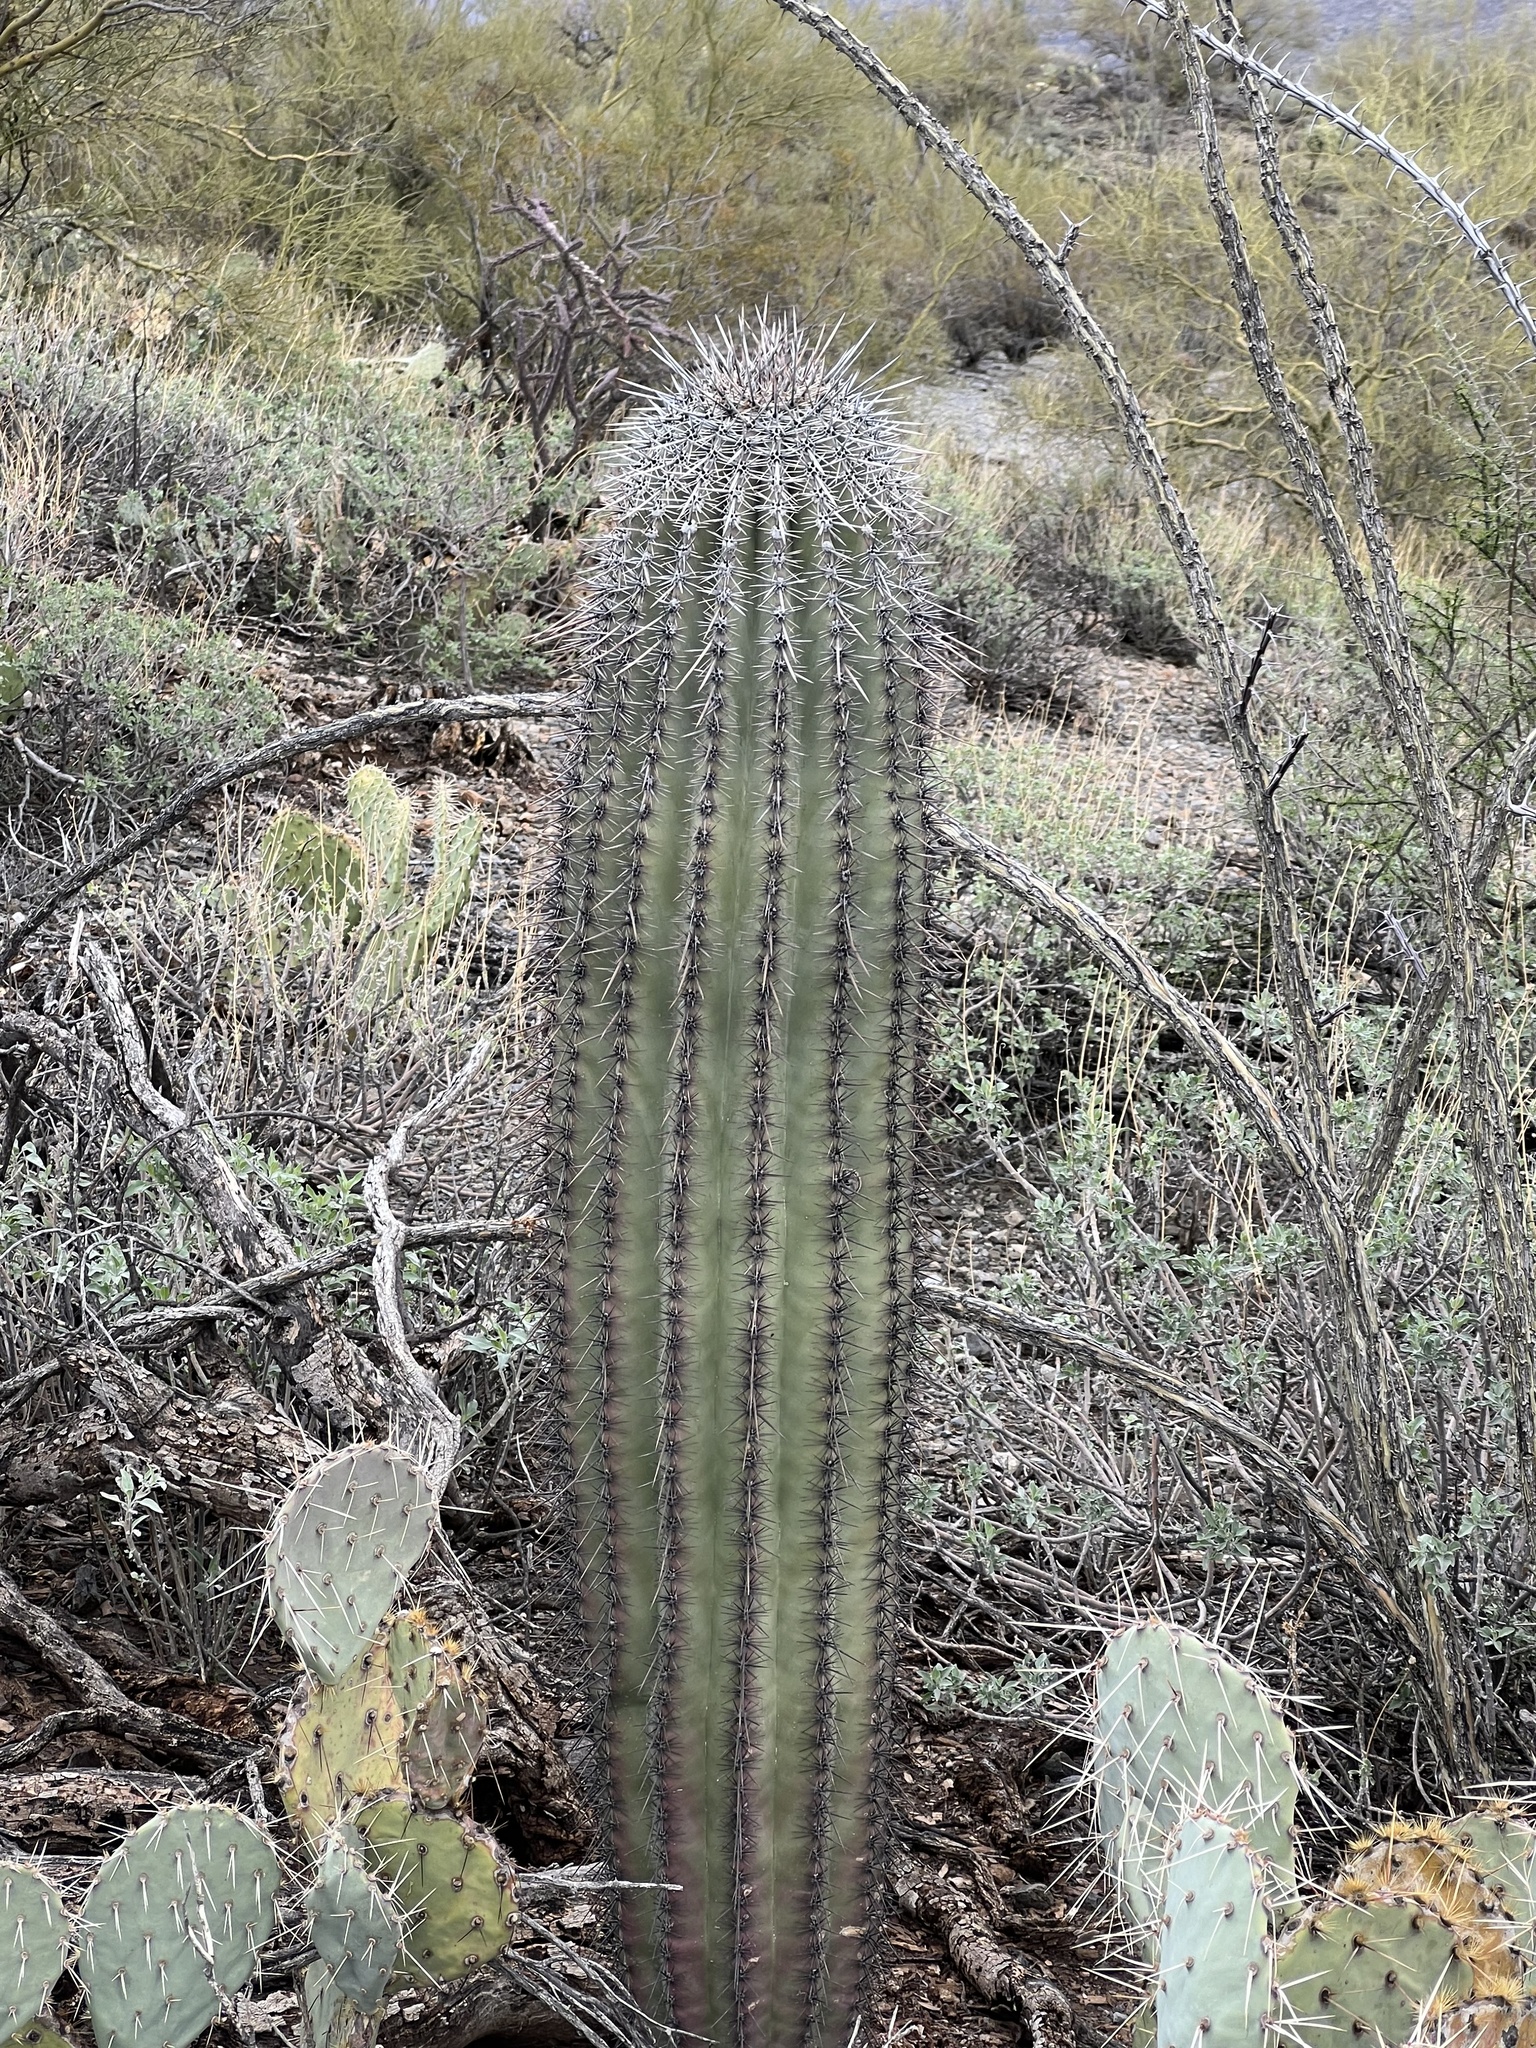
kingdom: Plantae
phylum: Tracheophyta
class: Magnoliopsida
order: Caryophyllales
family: Cactaceae
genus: Carnegiea
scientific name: Carnegiea gigantea
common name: Saguaro
